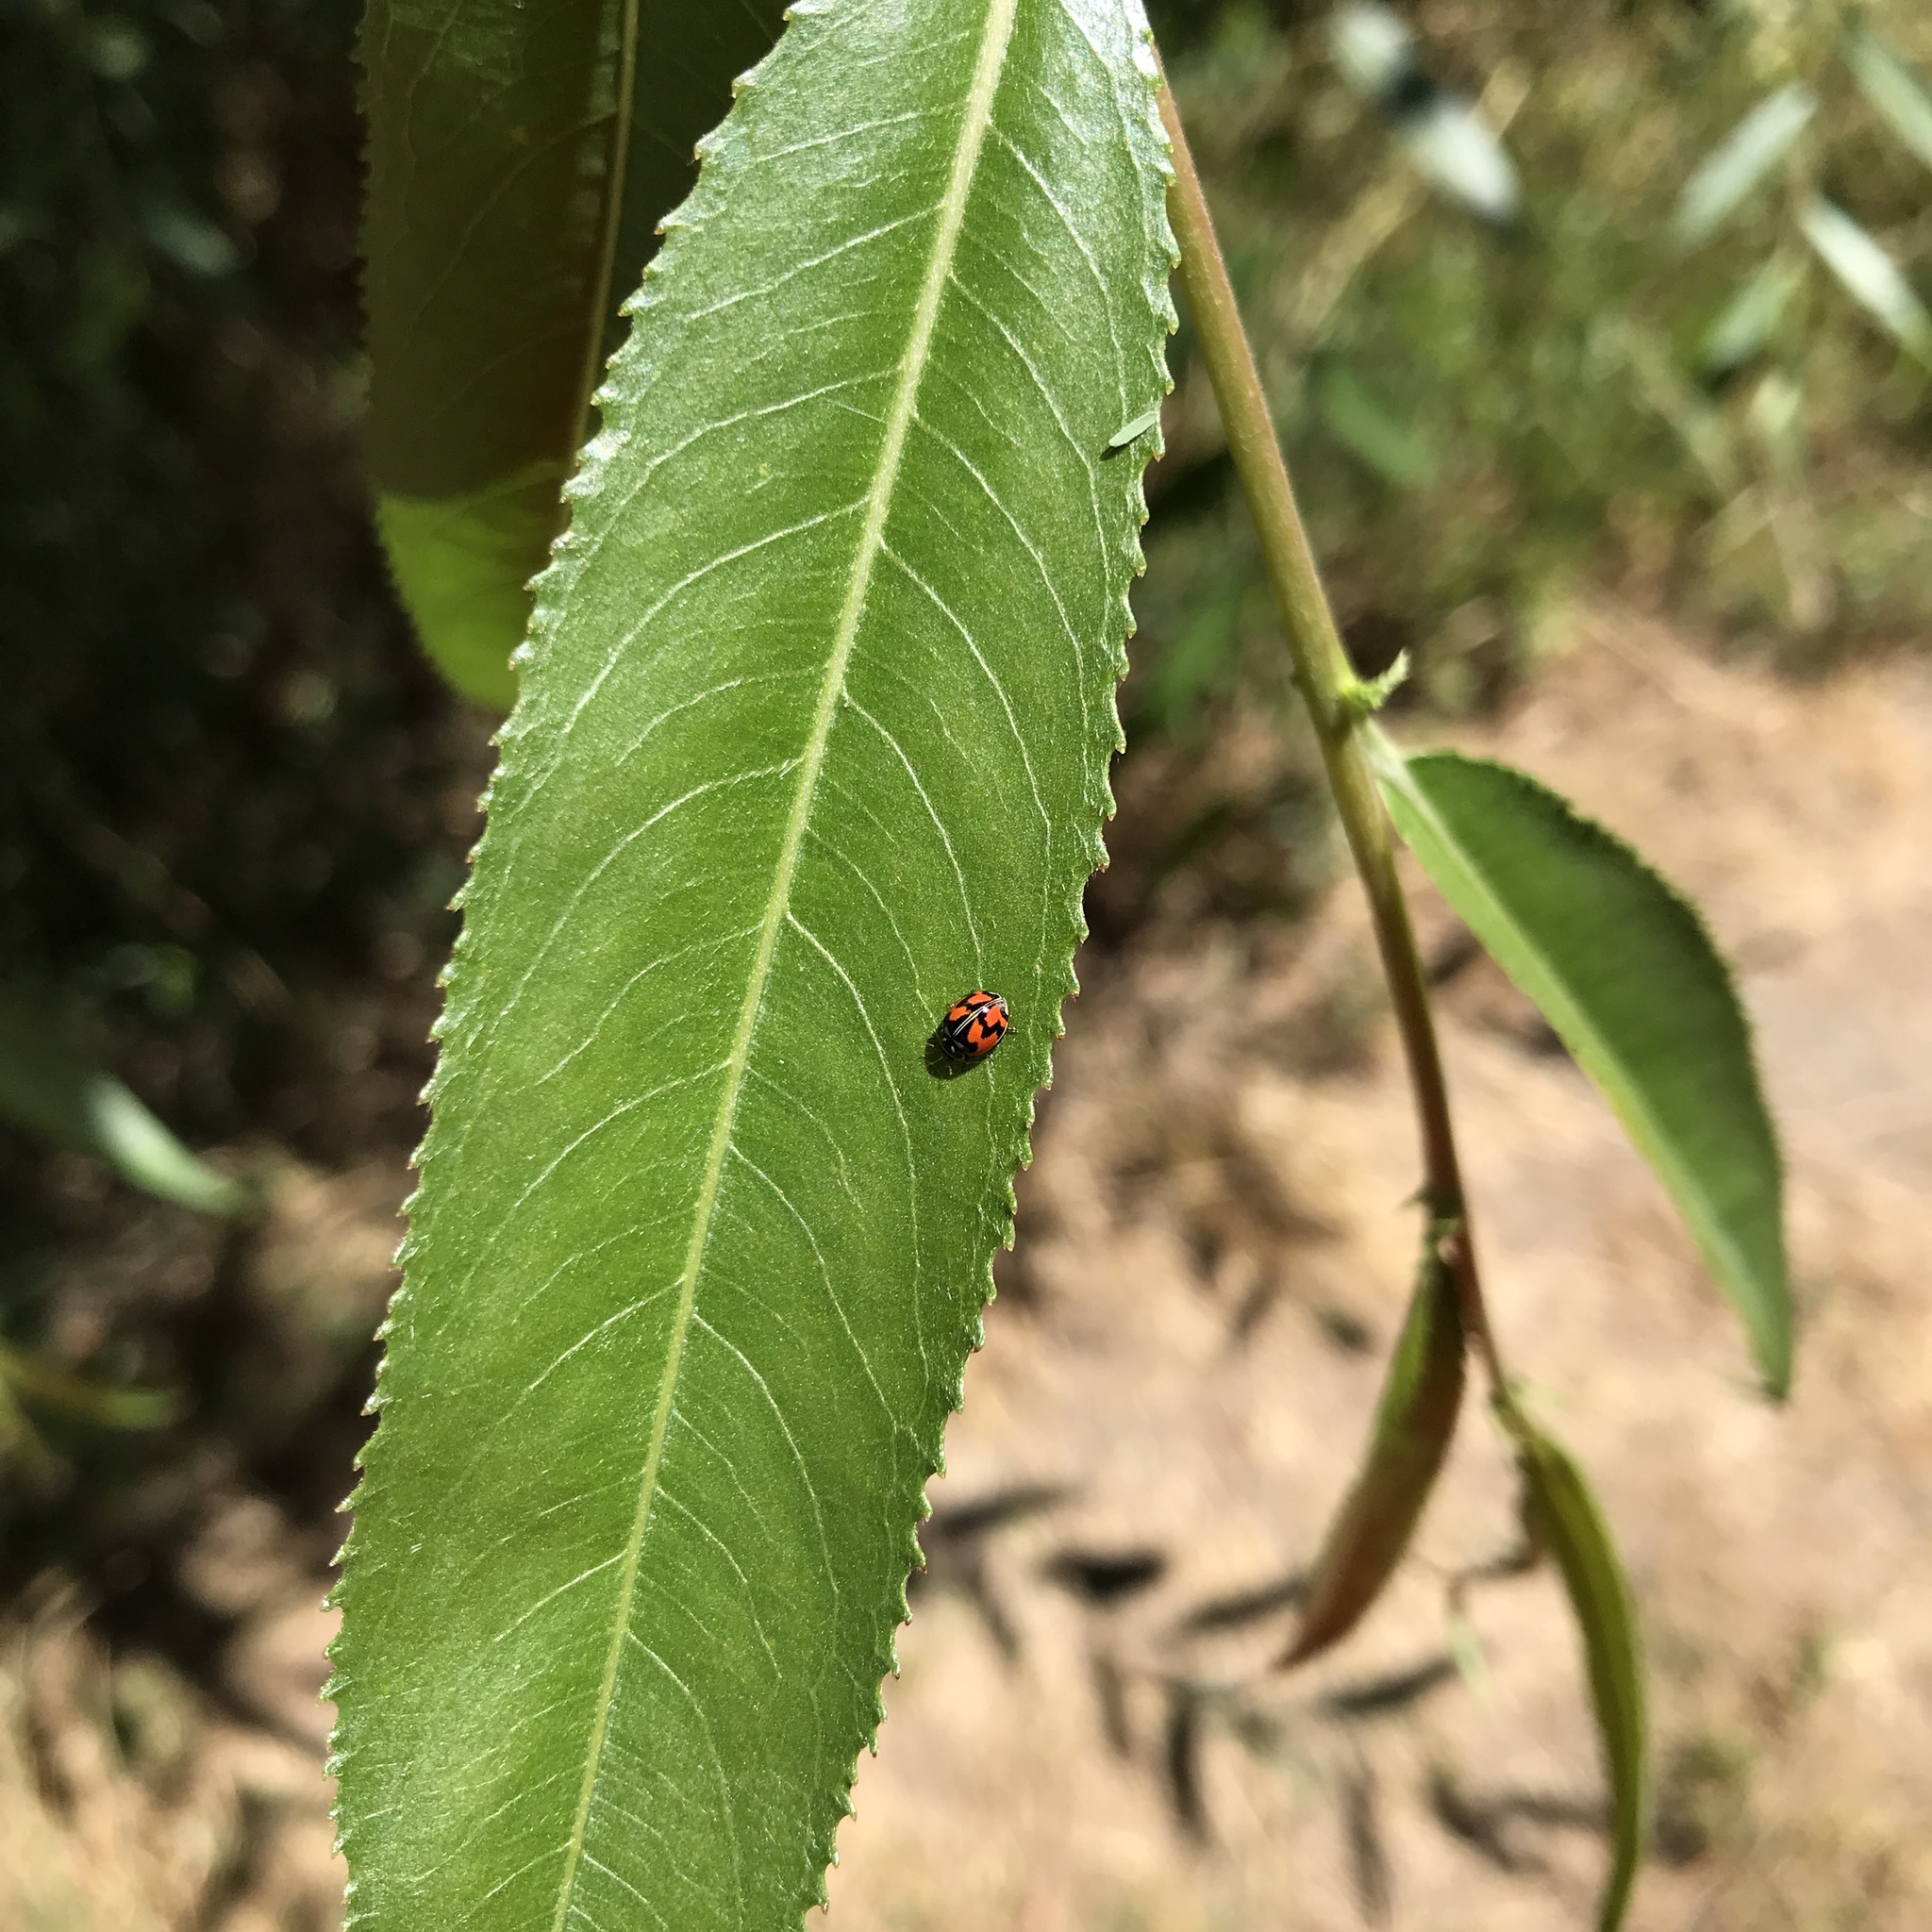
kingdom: Animalia
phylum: Arthropoda
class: Insecta
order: Coleoptera
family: Coccinellidae
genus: Adalia
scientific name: Adalia angulifera
